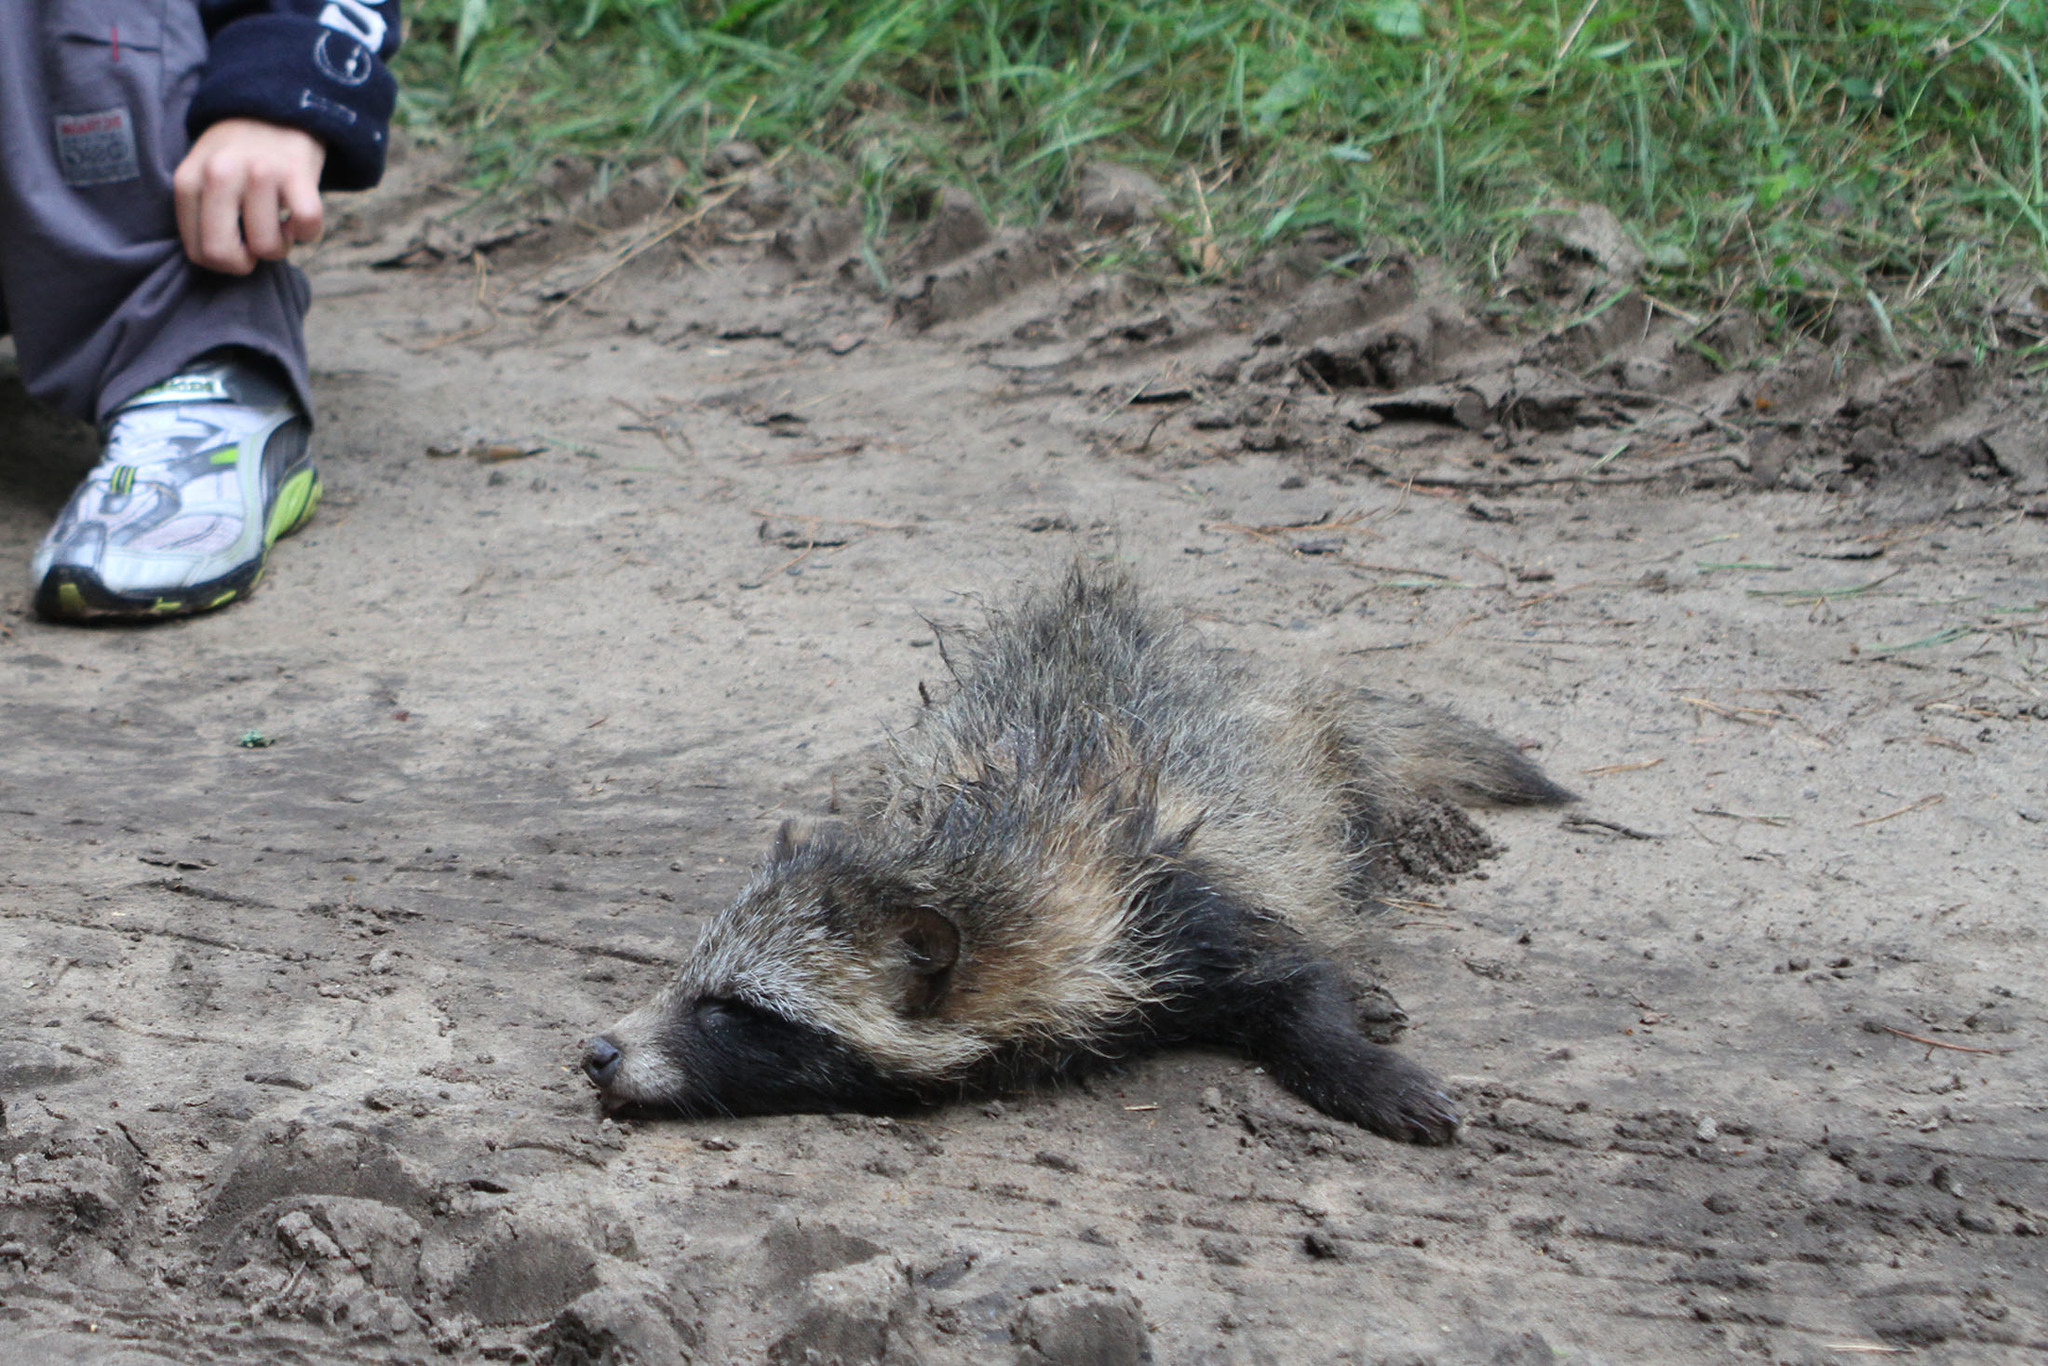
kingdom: Animalia
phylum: Chordata
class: Mammalia
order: Carnivora
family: Canidae
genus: Nyctereutes
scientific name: Nyctereutes procyonoides
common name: Raccoon dog
